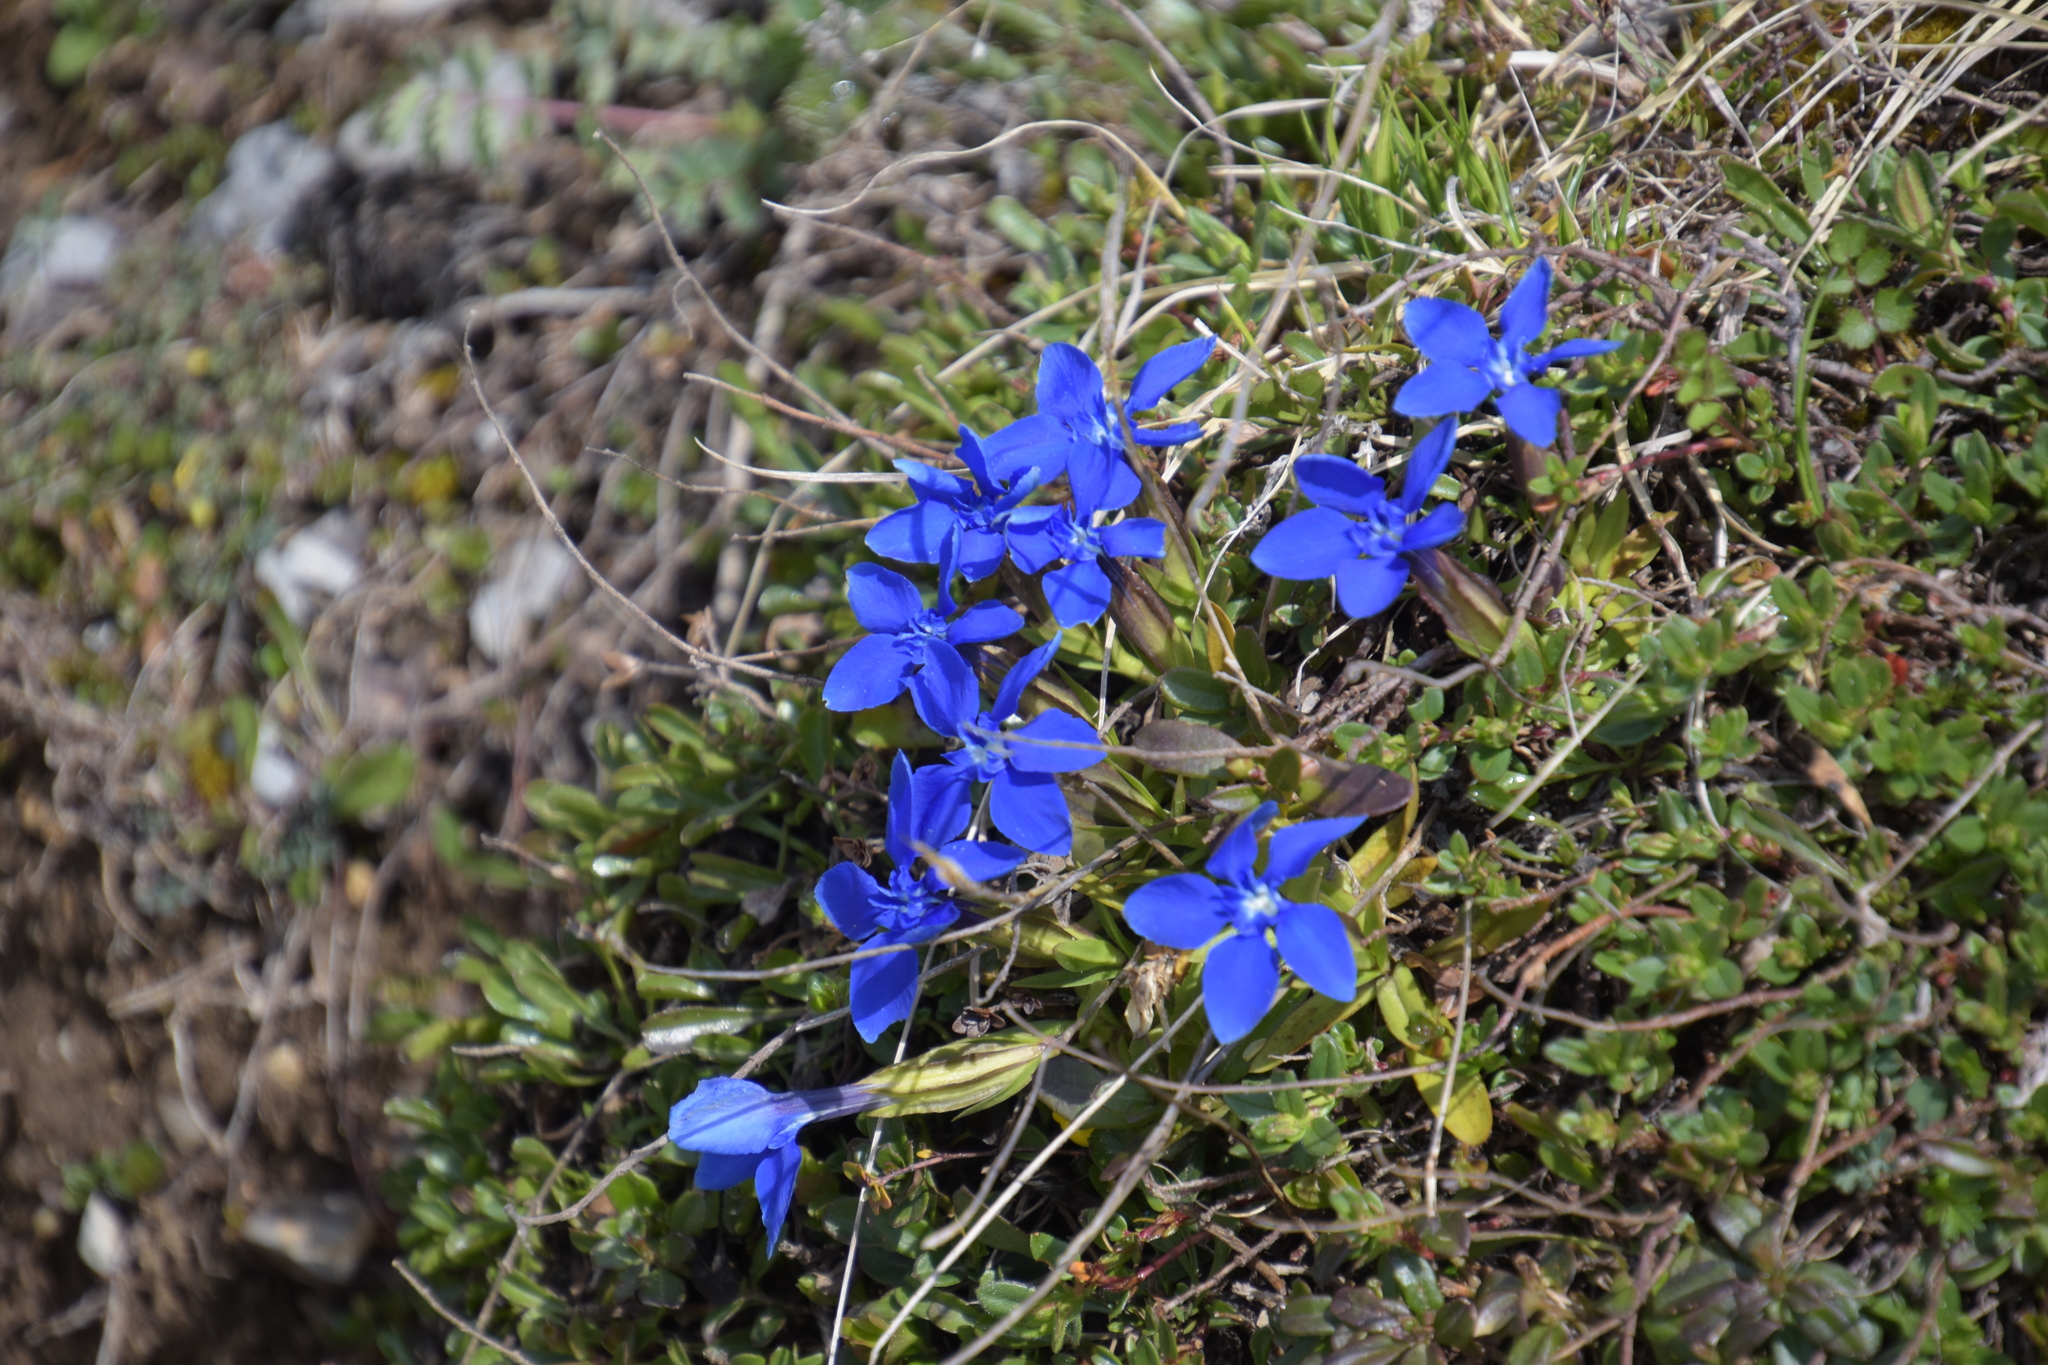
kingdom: Plantae
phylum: Tracheophyta
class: Magnoliopsida
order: Gentianales
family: Gentianaceae
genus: Gentiana
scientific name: Gentiana verna
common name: Spring gentian
